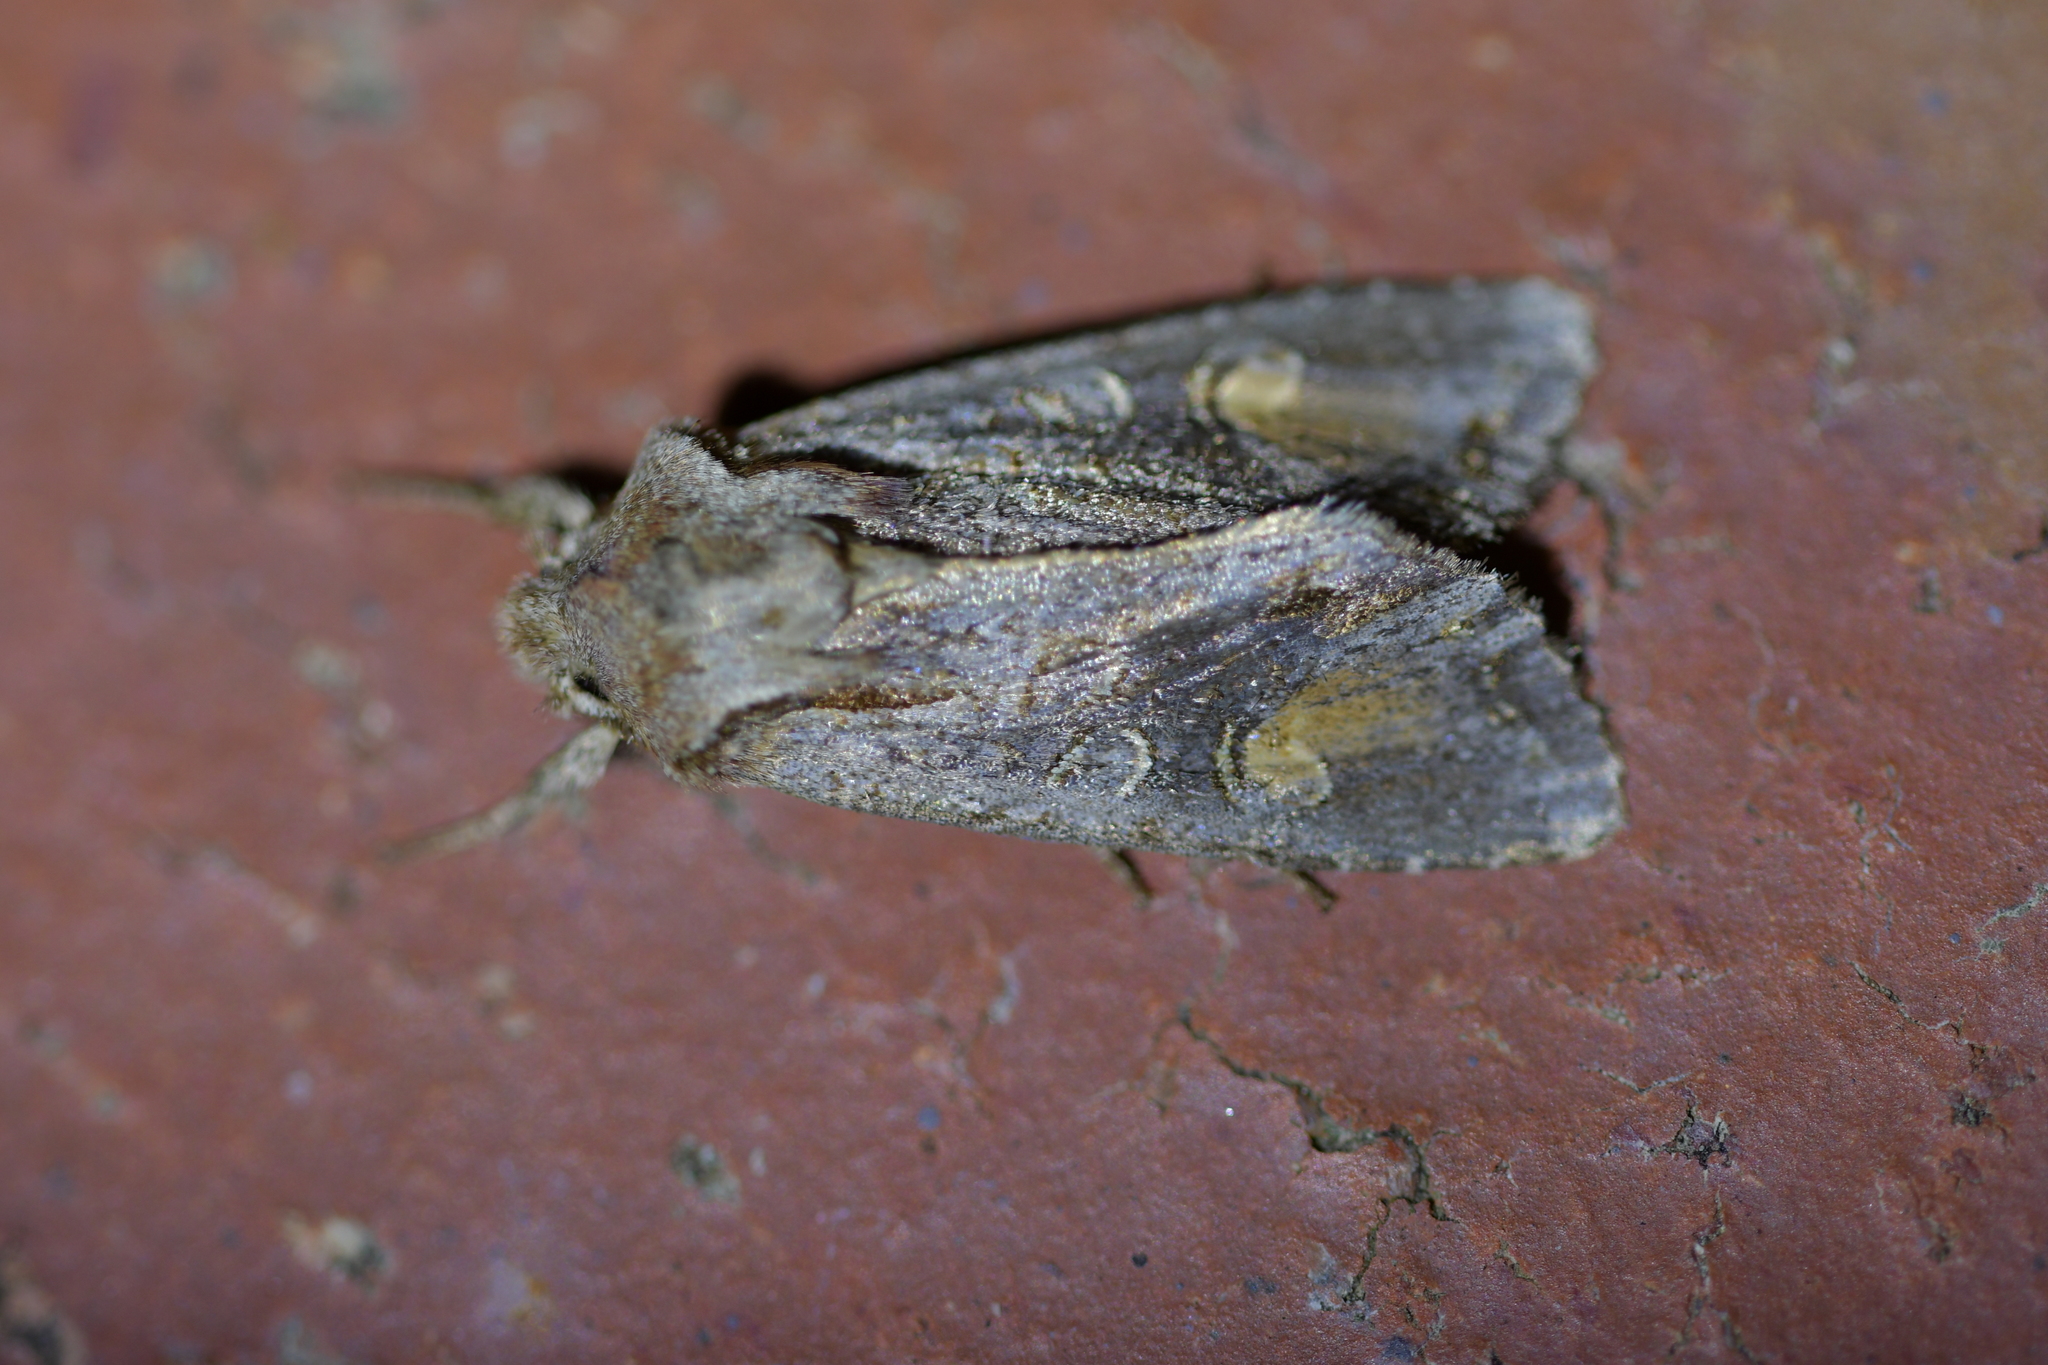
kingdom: Animalia
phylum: Arthropoda
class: Insecta
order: Lepidoptera
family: Noctuidae
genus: Ichneutica
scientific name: Ichneutica
